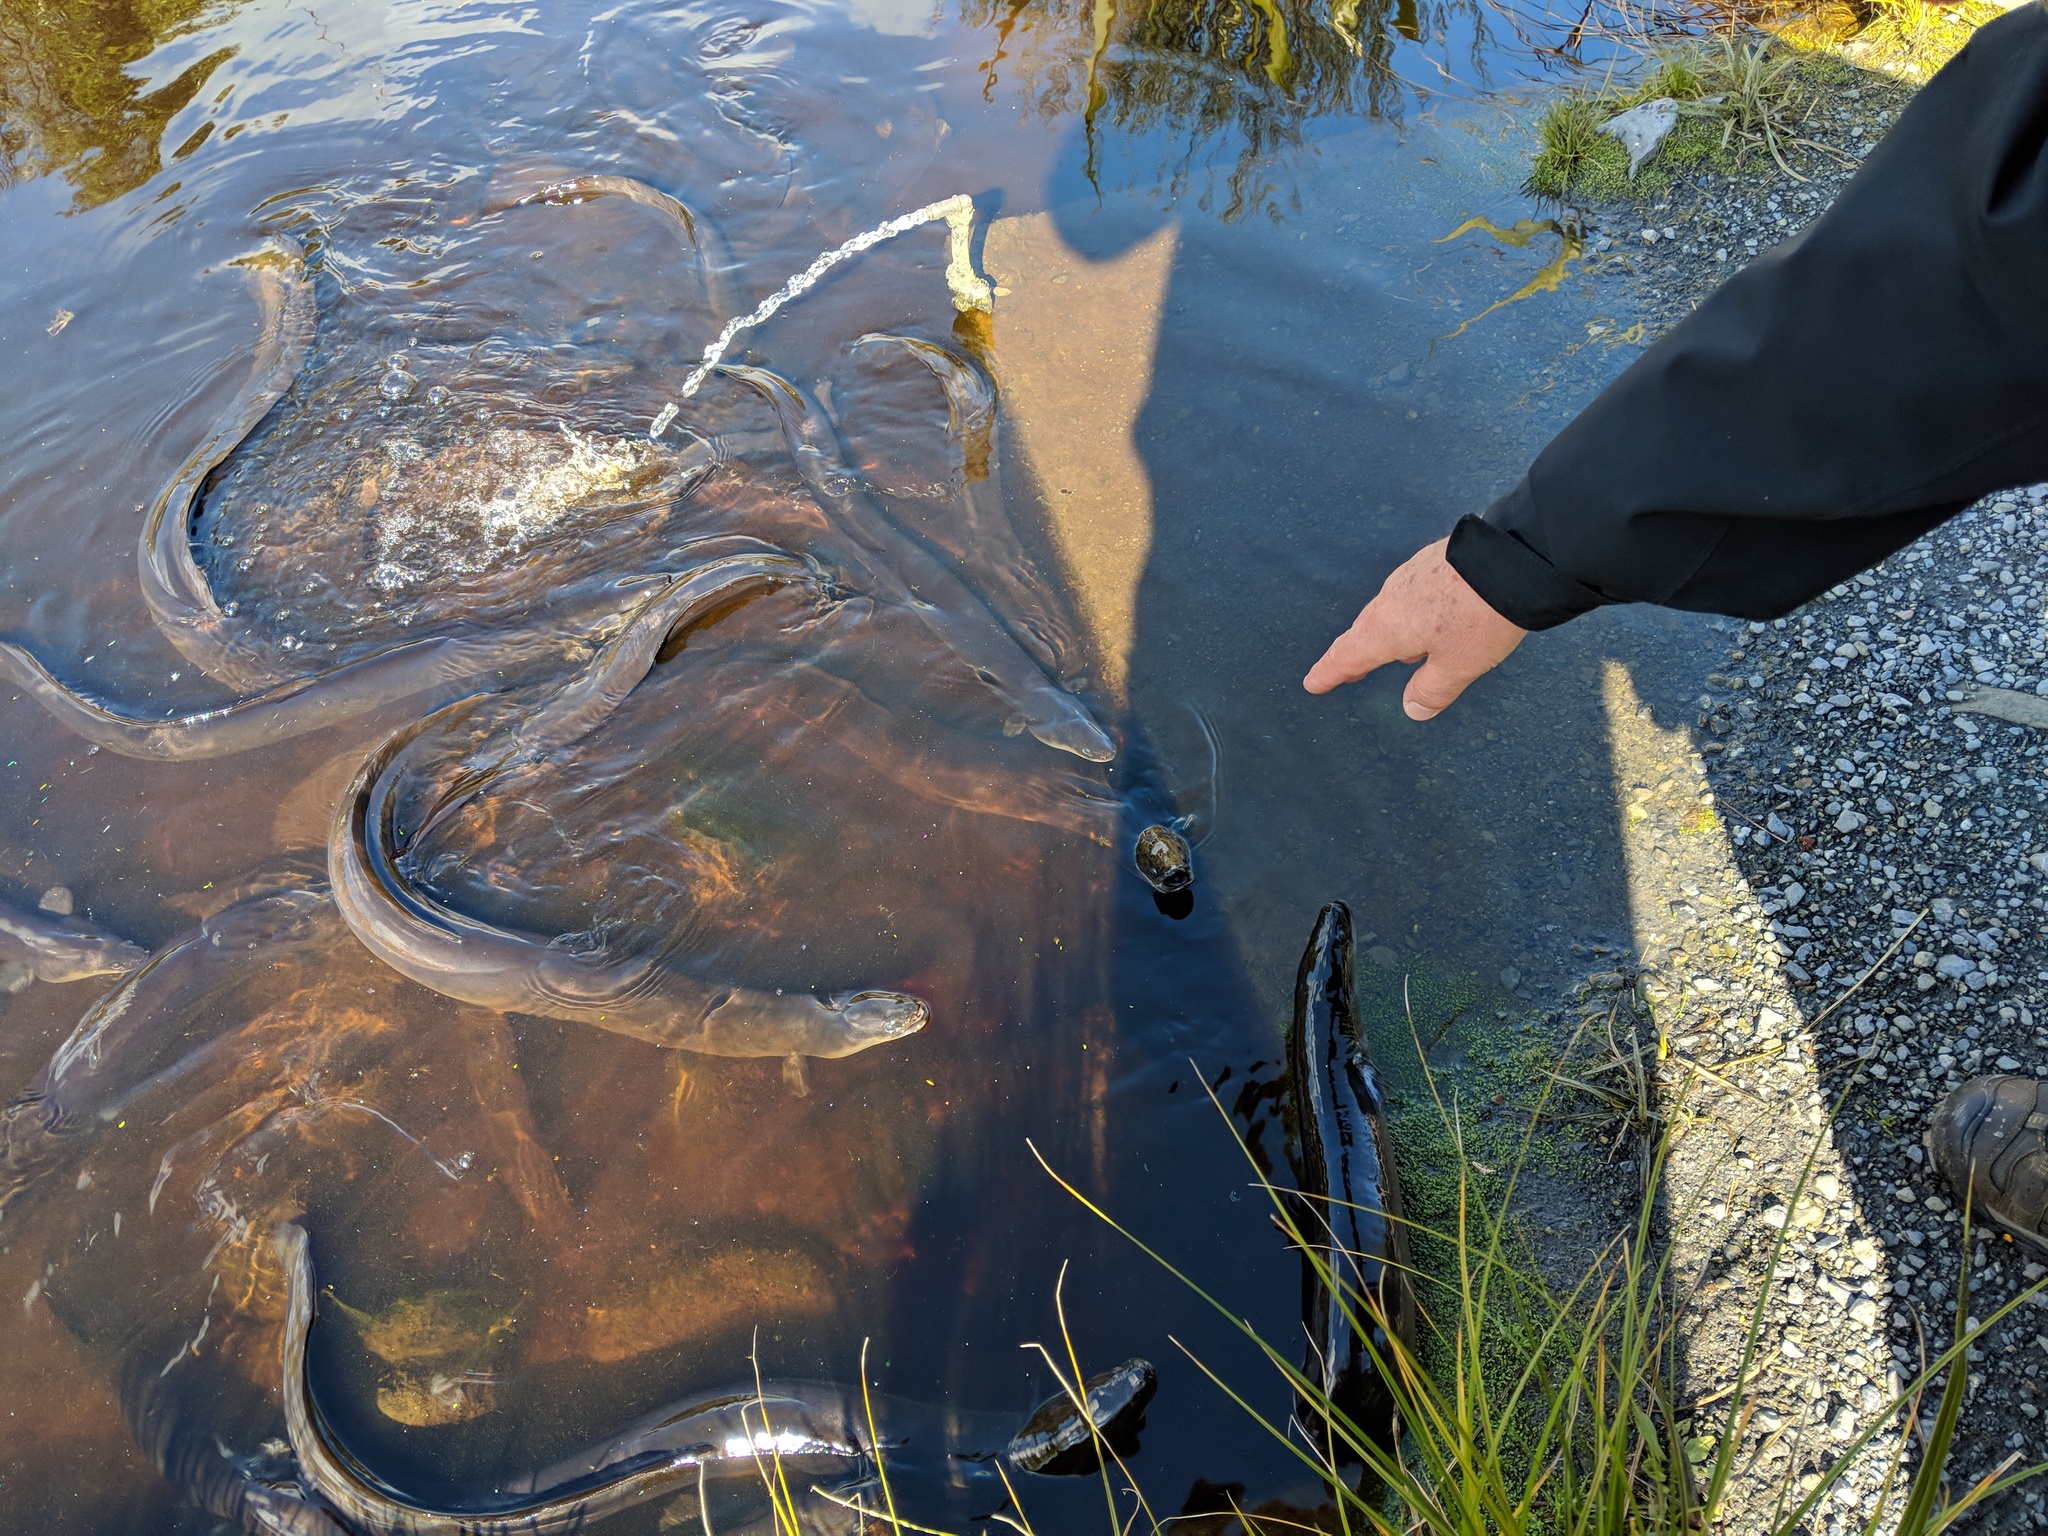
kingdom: Animalia
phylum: Chordata
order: Anguilliformes
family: Anguillidae
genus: Anguilla
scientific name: Anguilla dieffenbachii
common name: New zealand longfin eel
